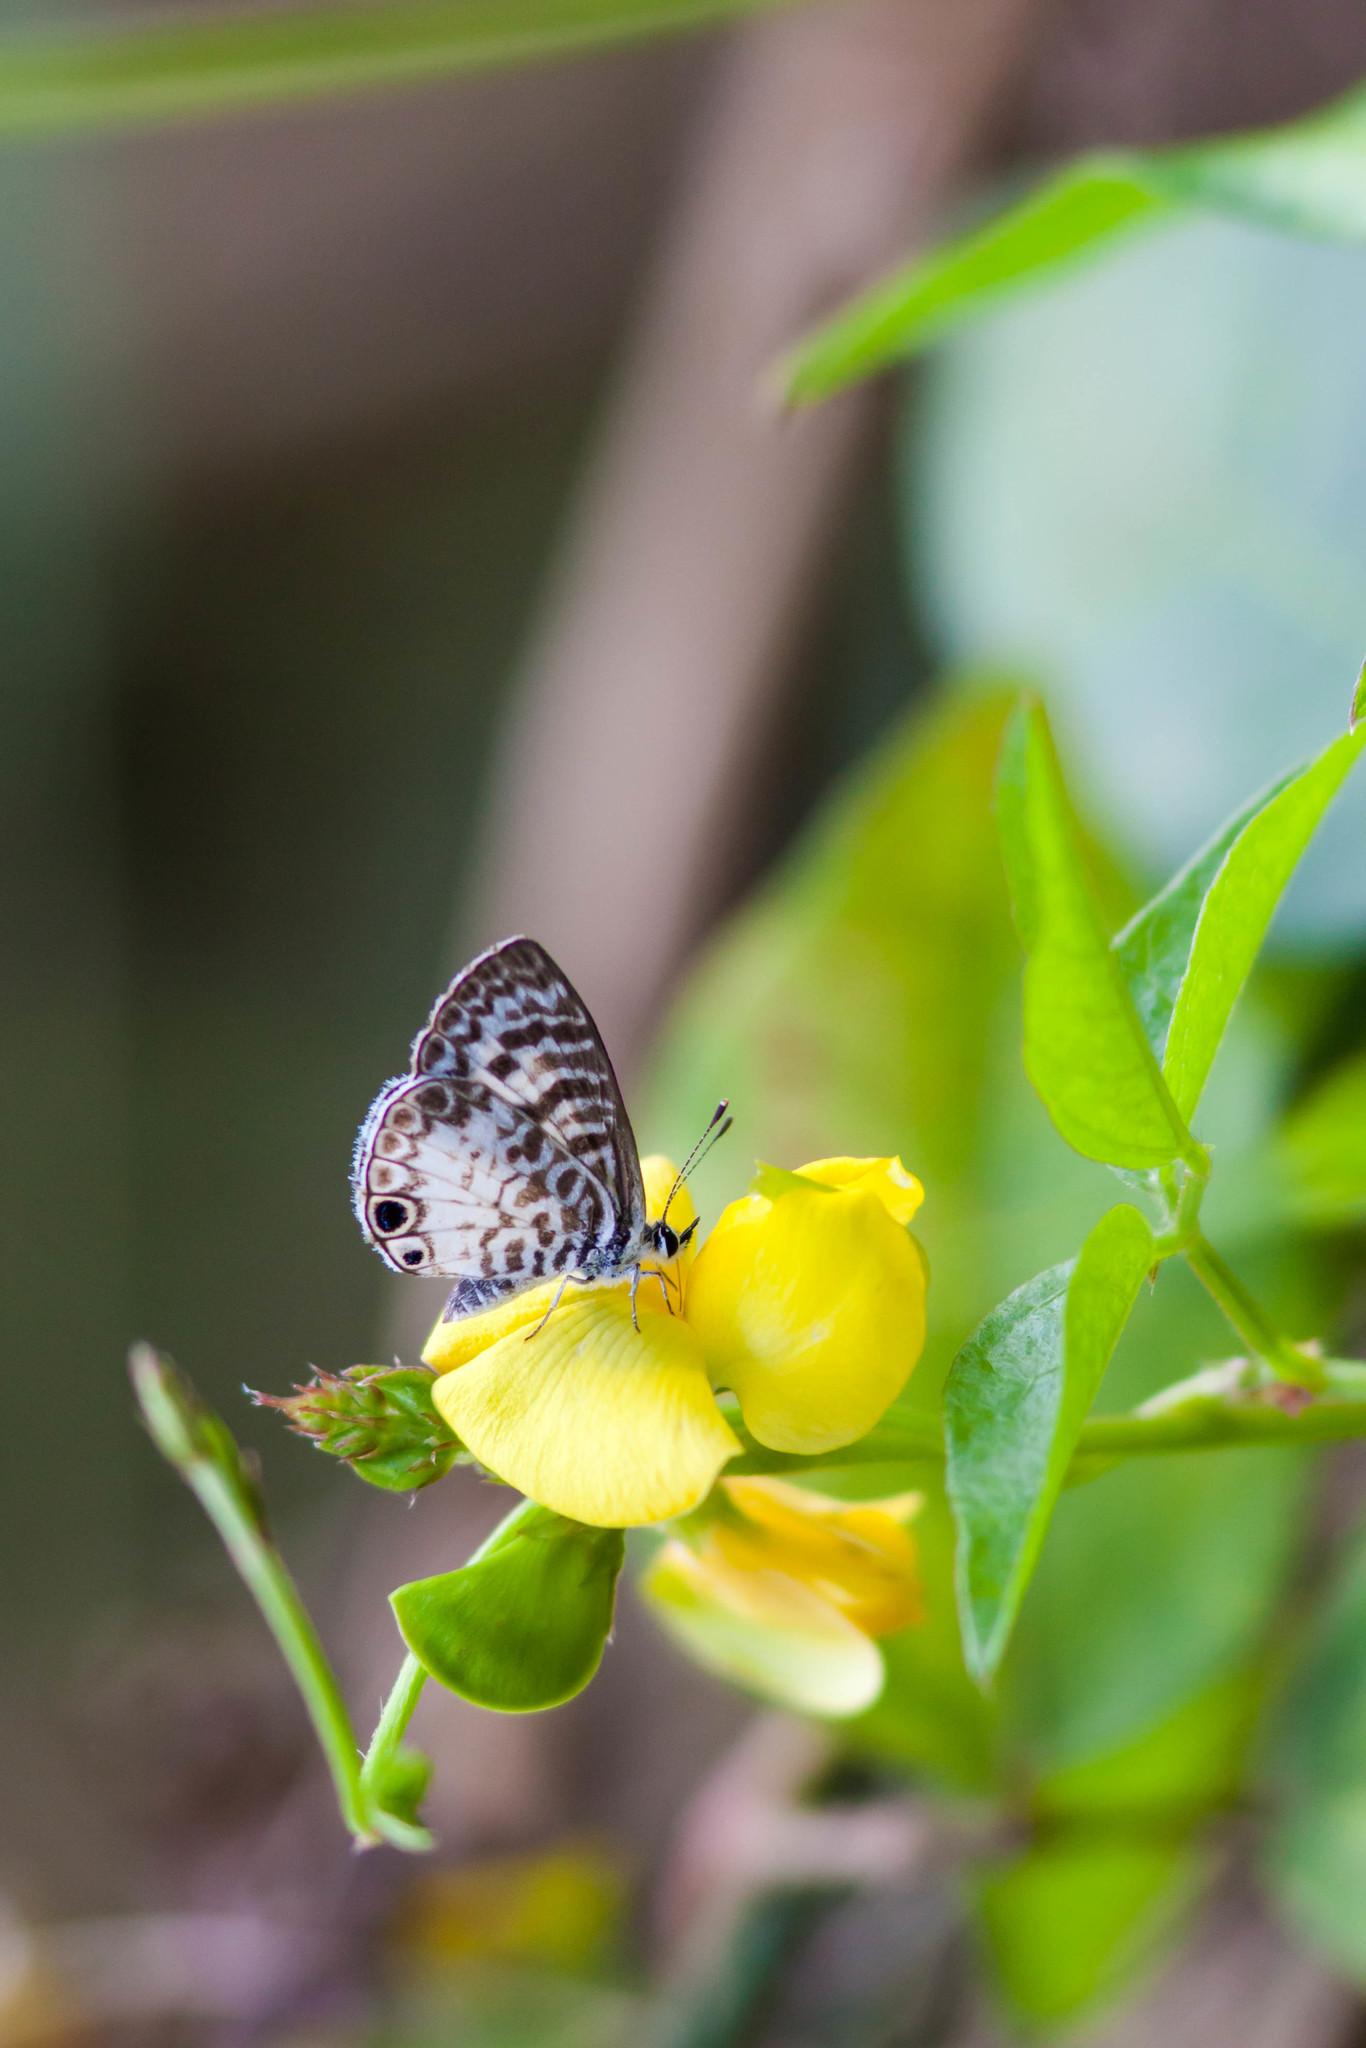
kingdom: Animalia
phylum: Arthropoda
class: Insecta
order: Lepidoptera
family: Lycaenidae
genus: Leptotes
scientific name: Leptotes cassius
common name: Cassius blue
